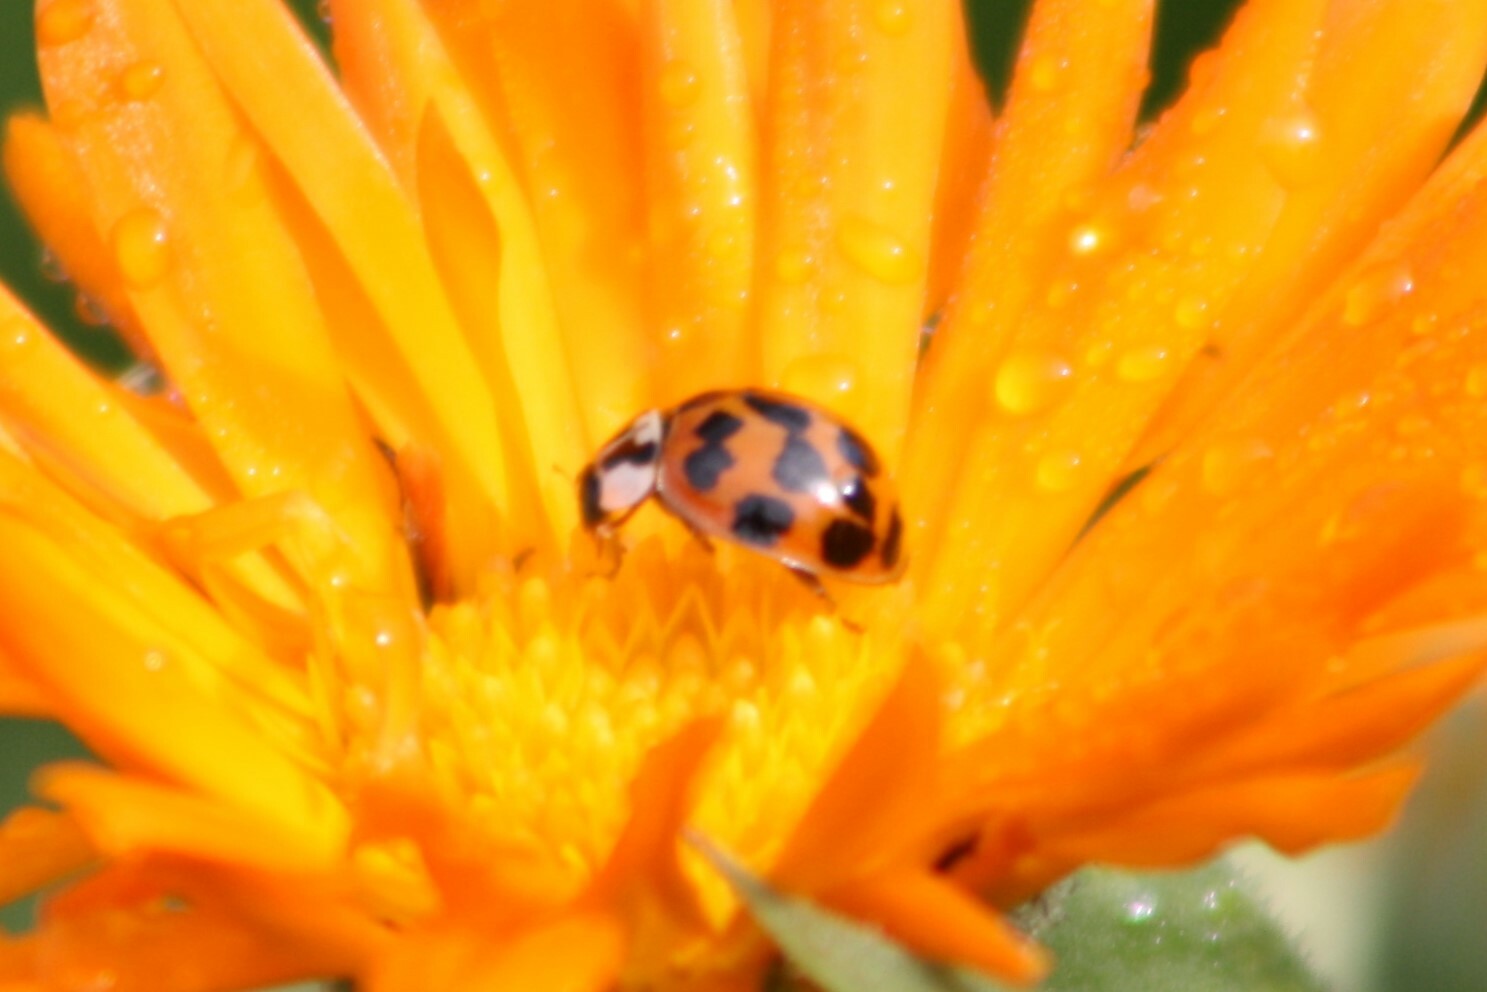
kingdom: Animalia
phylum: Arthropoda
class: Insecta
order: Coleoptera
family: Coccinellidae
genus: Harmonia
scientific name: Harmonia axyridis
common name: Harlequin ladybird
